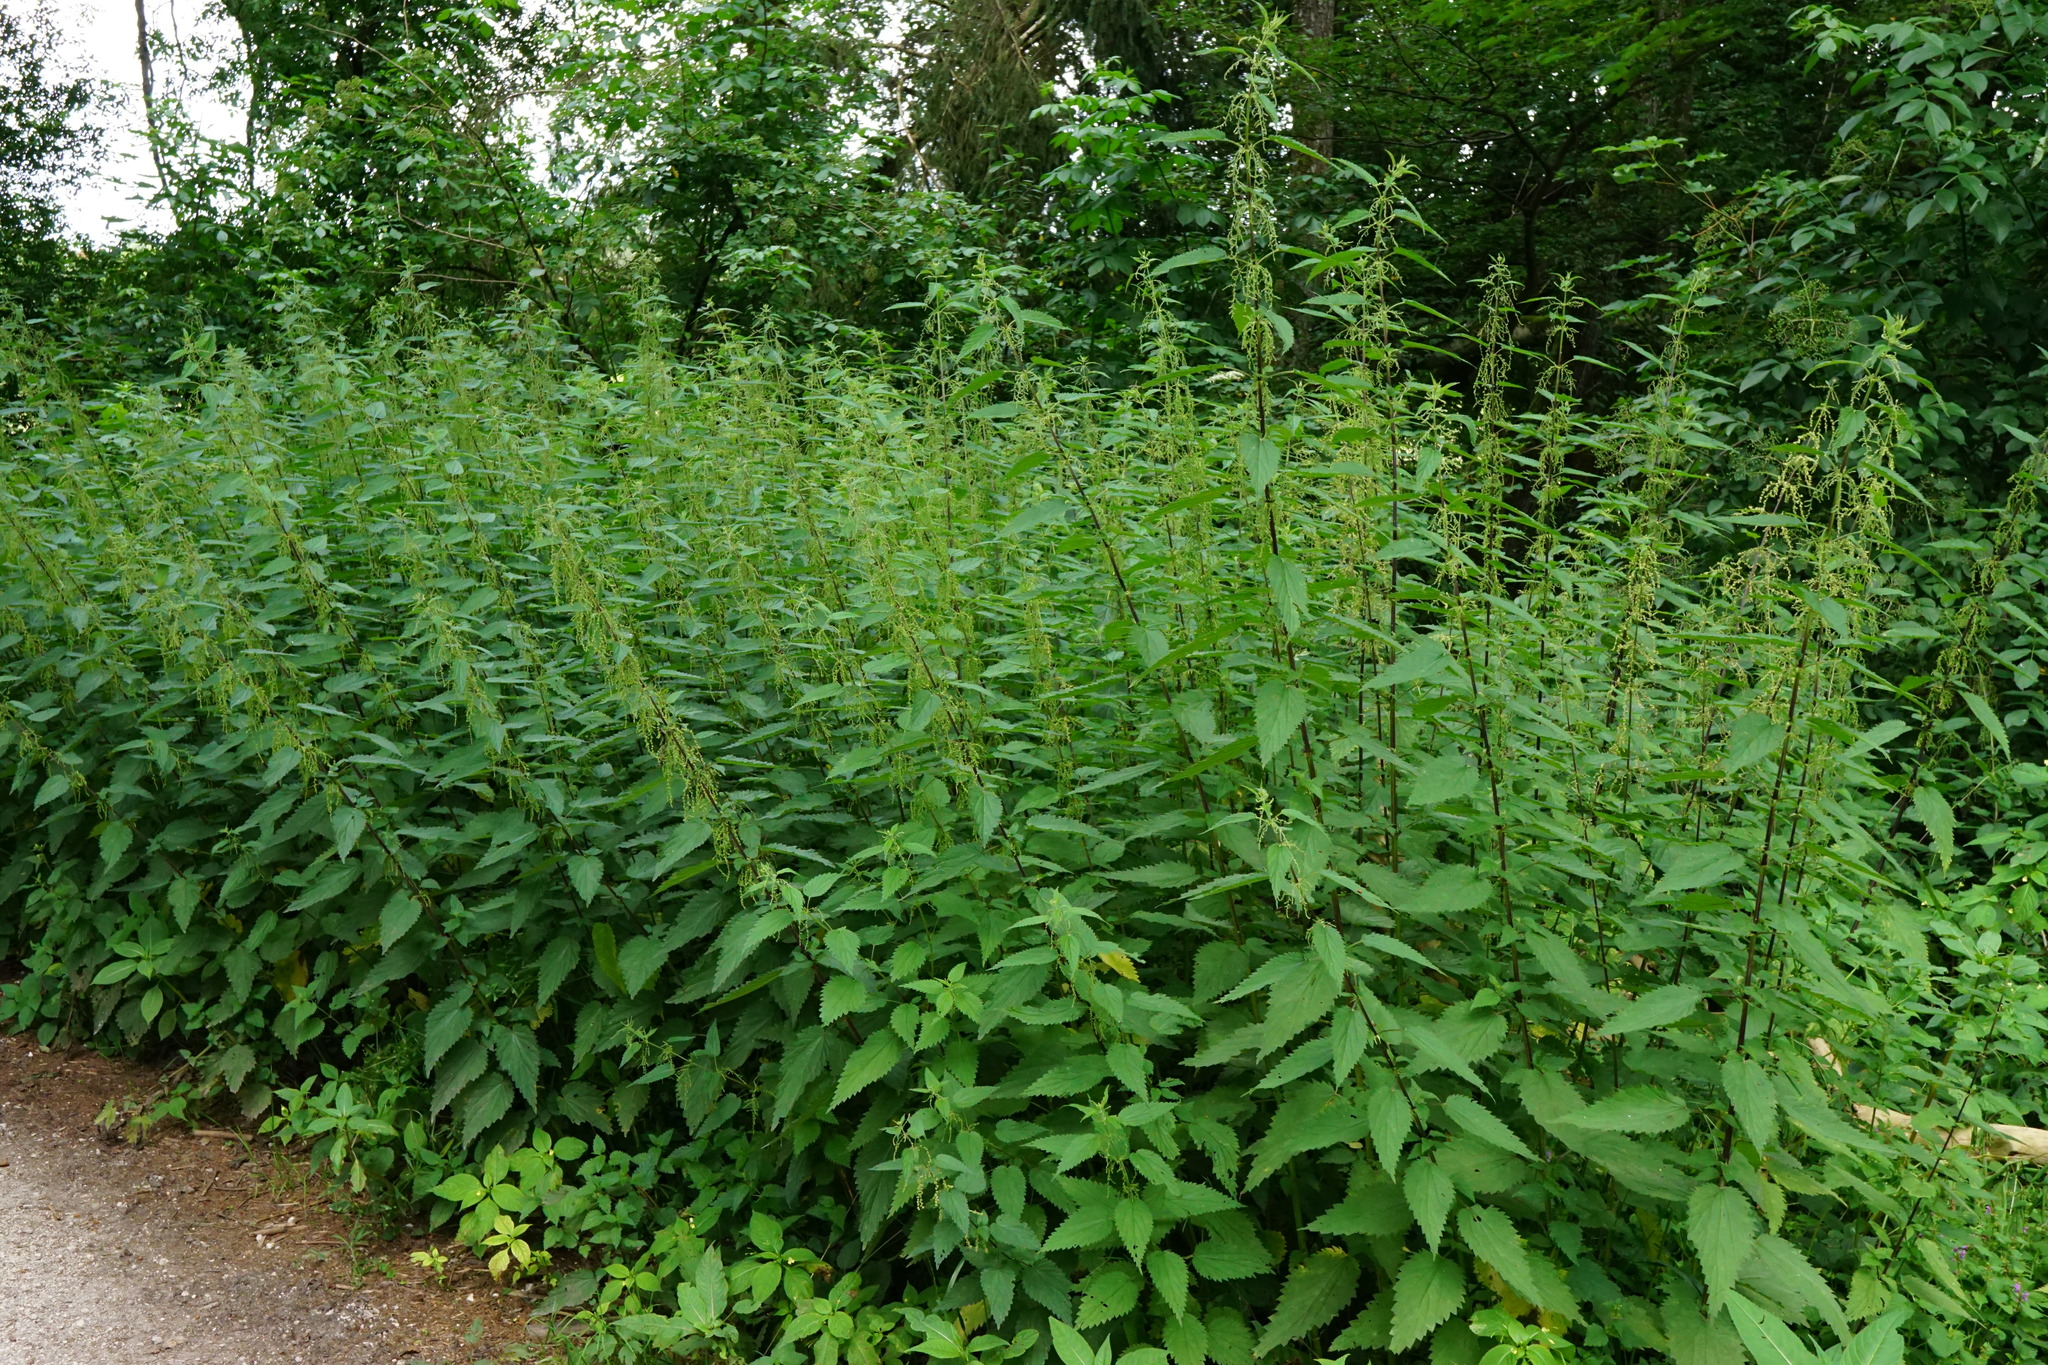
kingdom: Plantae
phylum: Tracheophyta
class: Magnoliopsida
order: Rosales
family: Urticaceae
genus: Urtica
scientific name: Urtica dioica
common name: Common nettle
